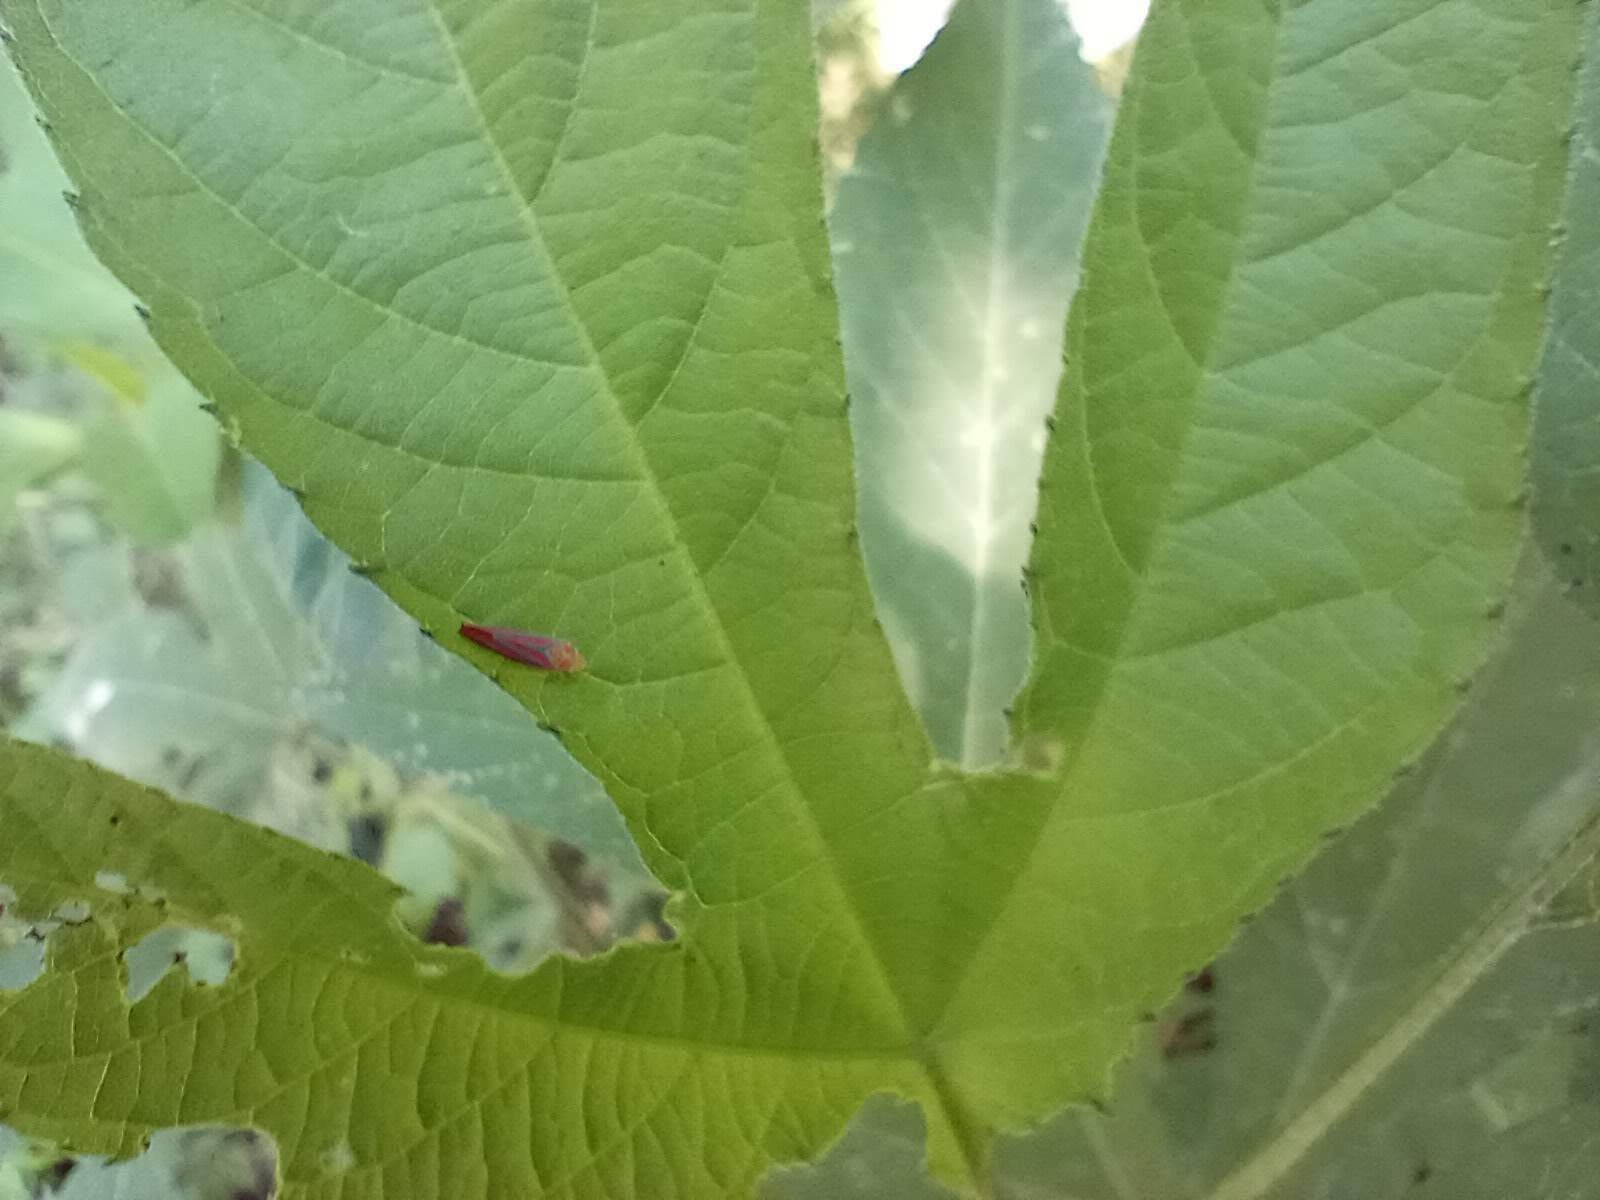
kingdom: Animalia
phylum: Arthropoda
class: Insecta
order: Hemiptera
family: Cicadellidae
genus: Graphocephala
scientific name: Graphocephala coccinea
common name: Candy-striped leafhopper
